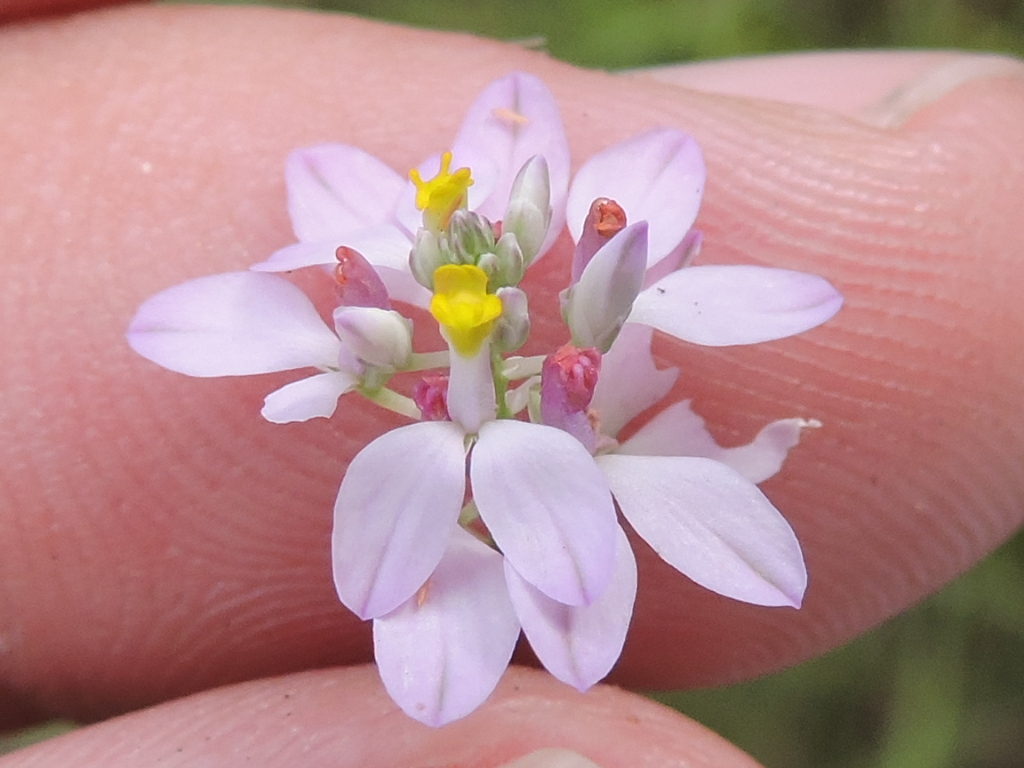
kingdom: Plantae
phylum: Tracheophyta
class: Magnoliopsida
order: Fabales
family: Polygalaceae
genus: Polygala
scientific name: Polygala mariana
